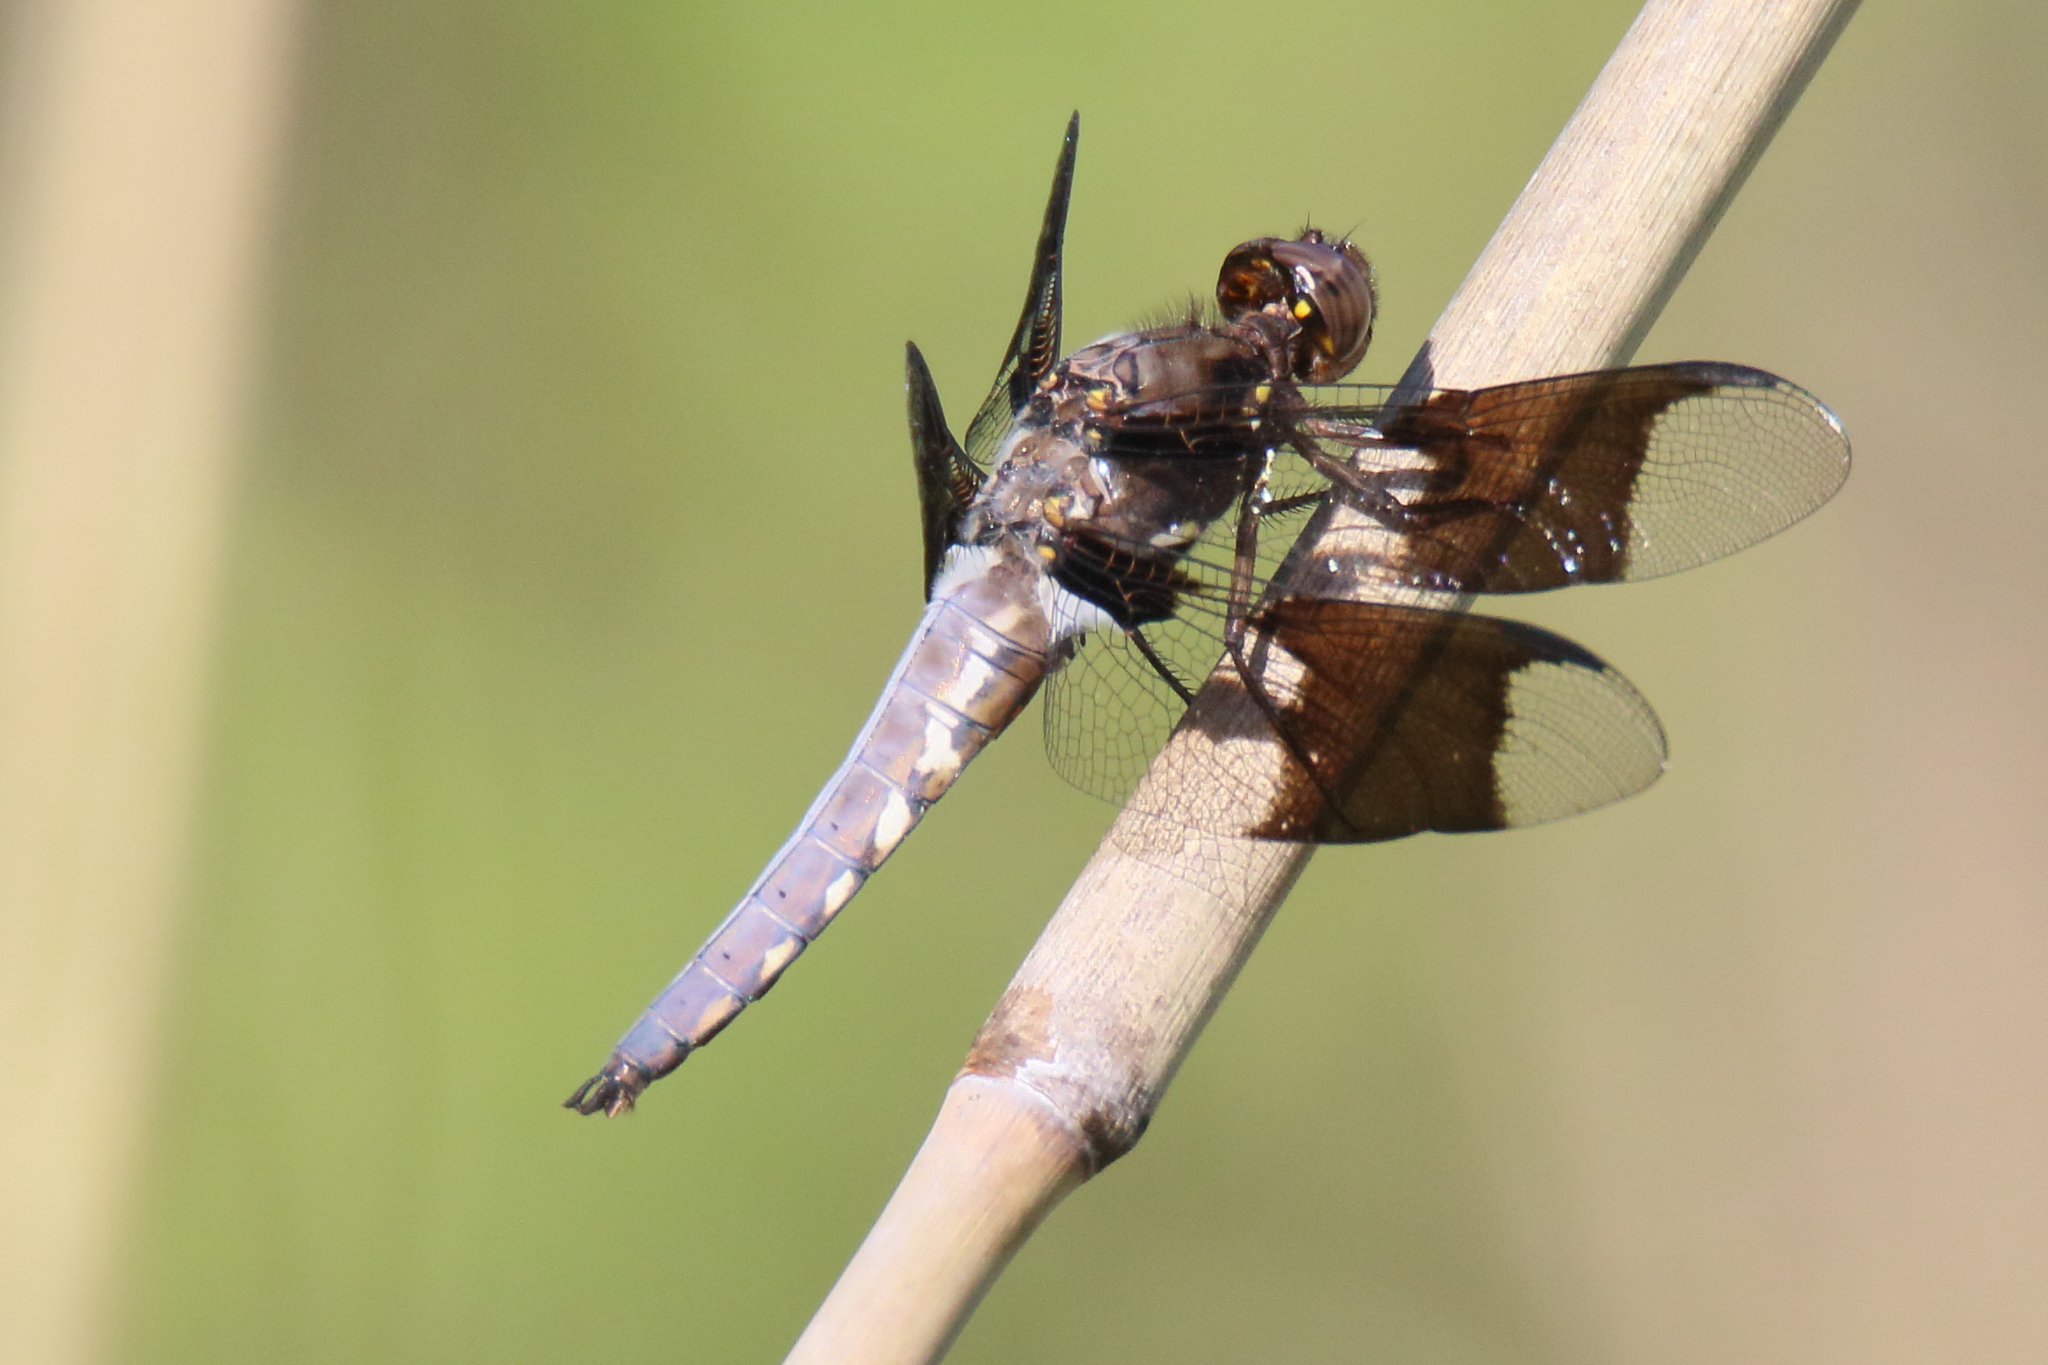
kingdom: Animalia
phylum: Arthropoda
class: Insecta
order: Odonata
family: Libellulidae
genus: Plathemis
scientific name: Plathemis lydia
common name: Common whitetail
